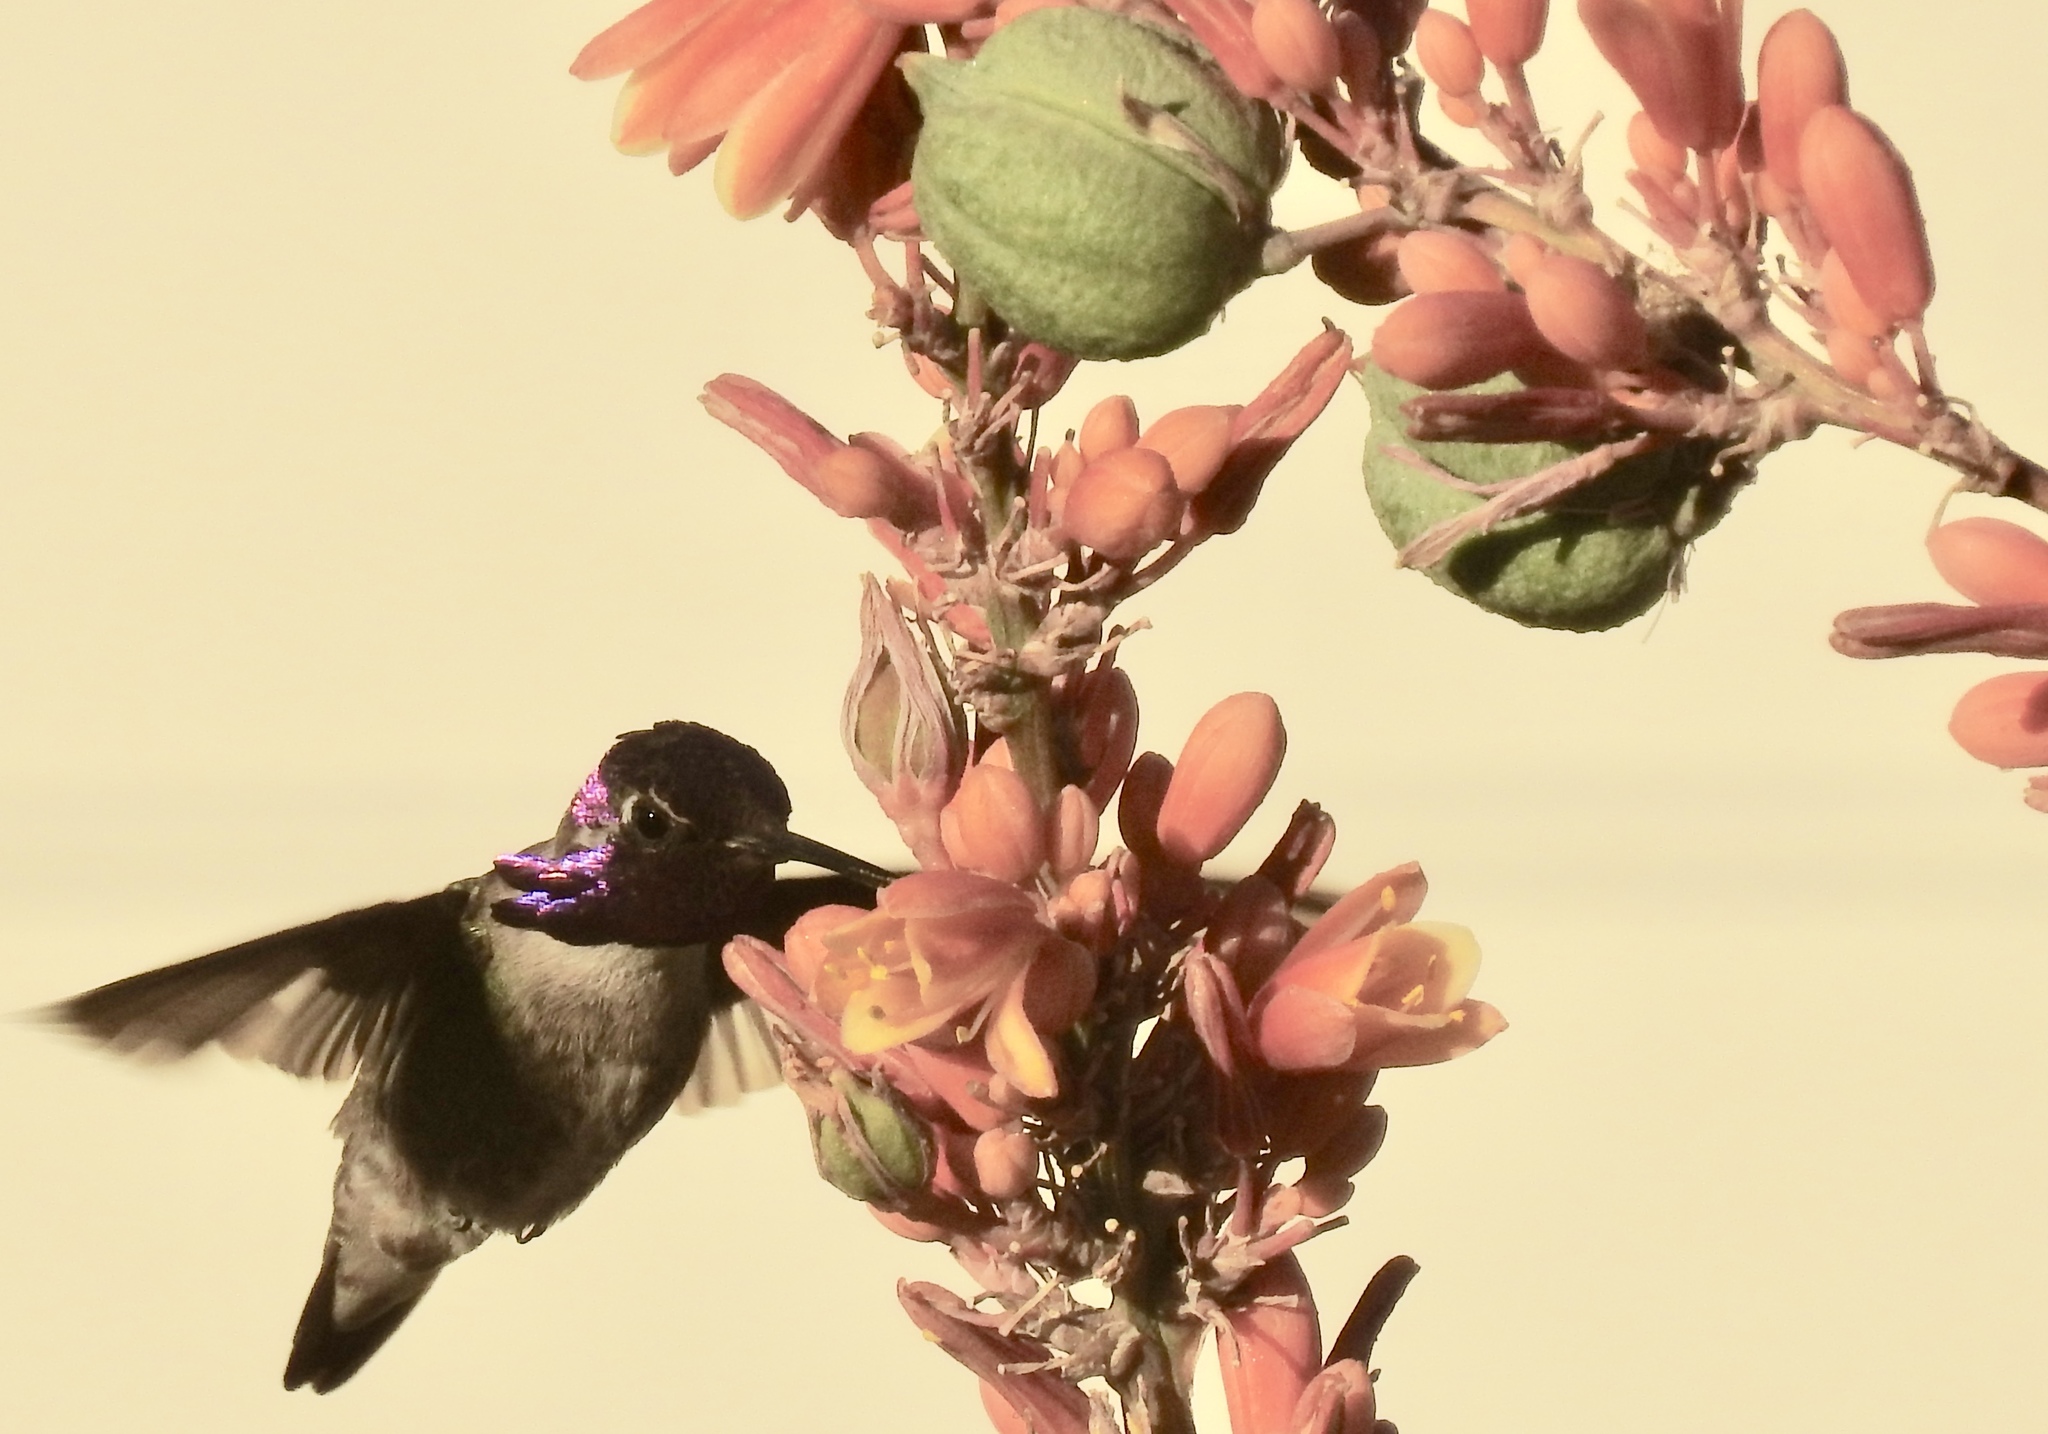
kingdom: Animalia
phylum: Chordata
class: Aves
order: Apodiformes
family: Trochilidae
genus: Calypte
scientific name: Calypte costae
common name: Costa's hummingbird
